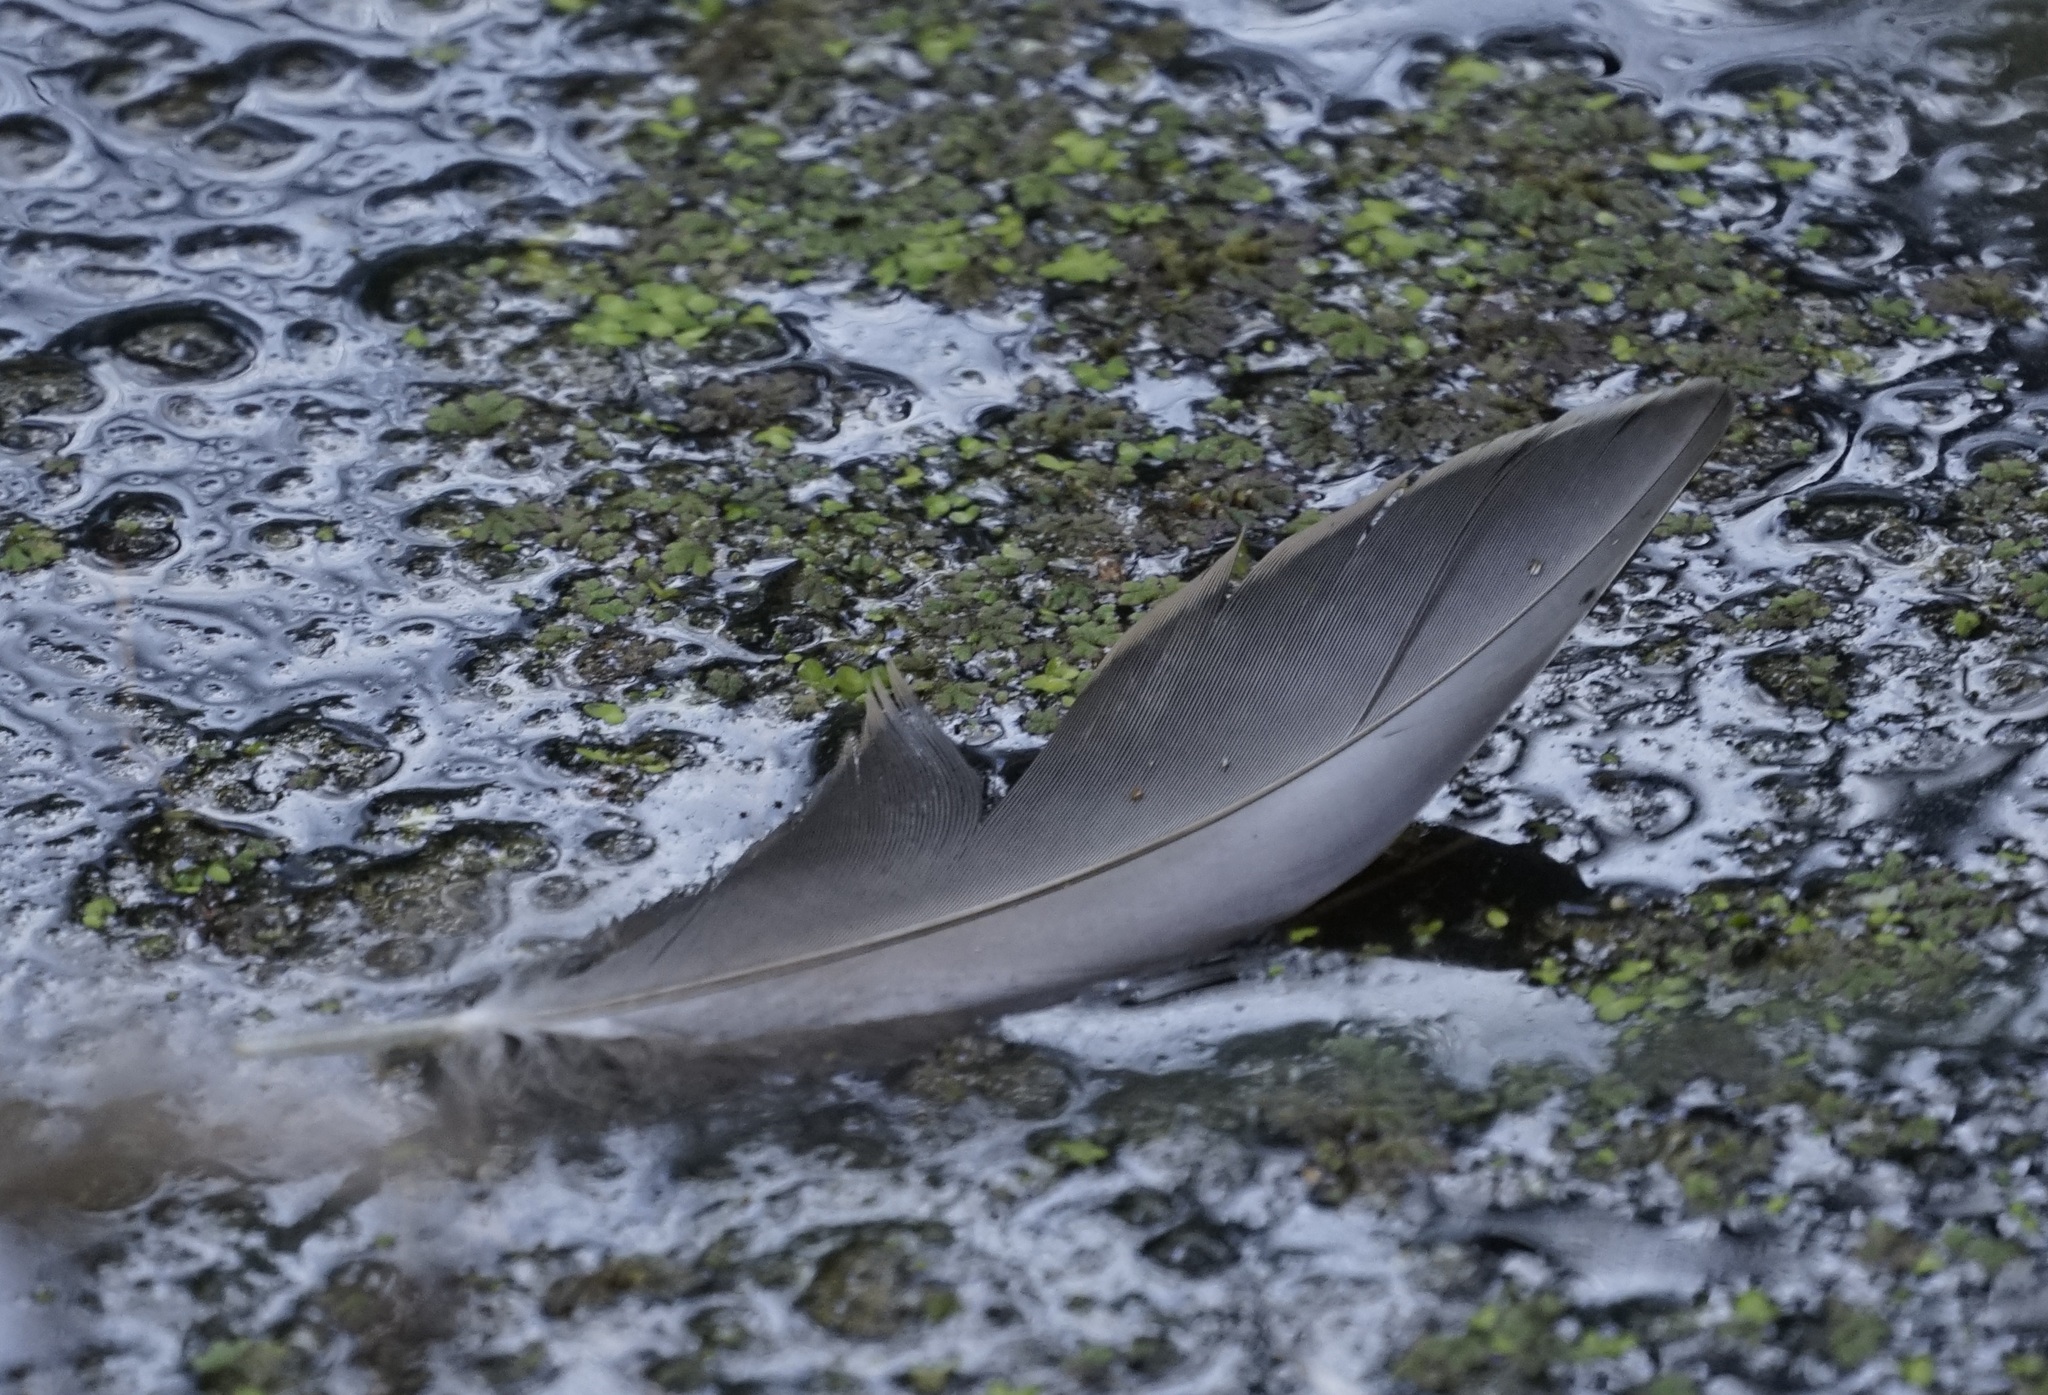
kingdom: Animalia
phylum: Chordata
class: Aves
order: Anseriformes
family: Anatidae
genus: Anas
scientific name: Anas superciliosa
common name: Pacific black duck
